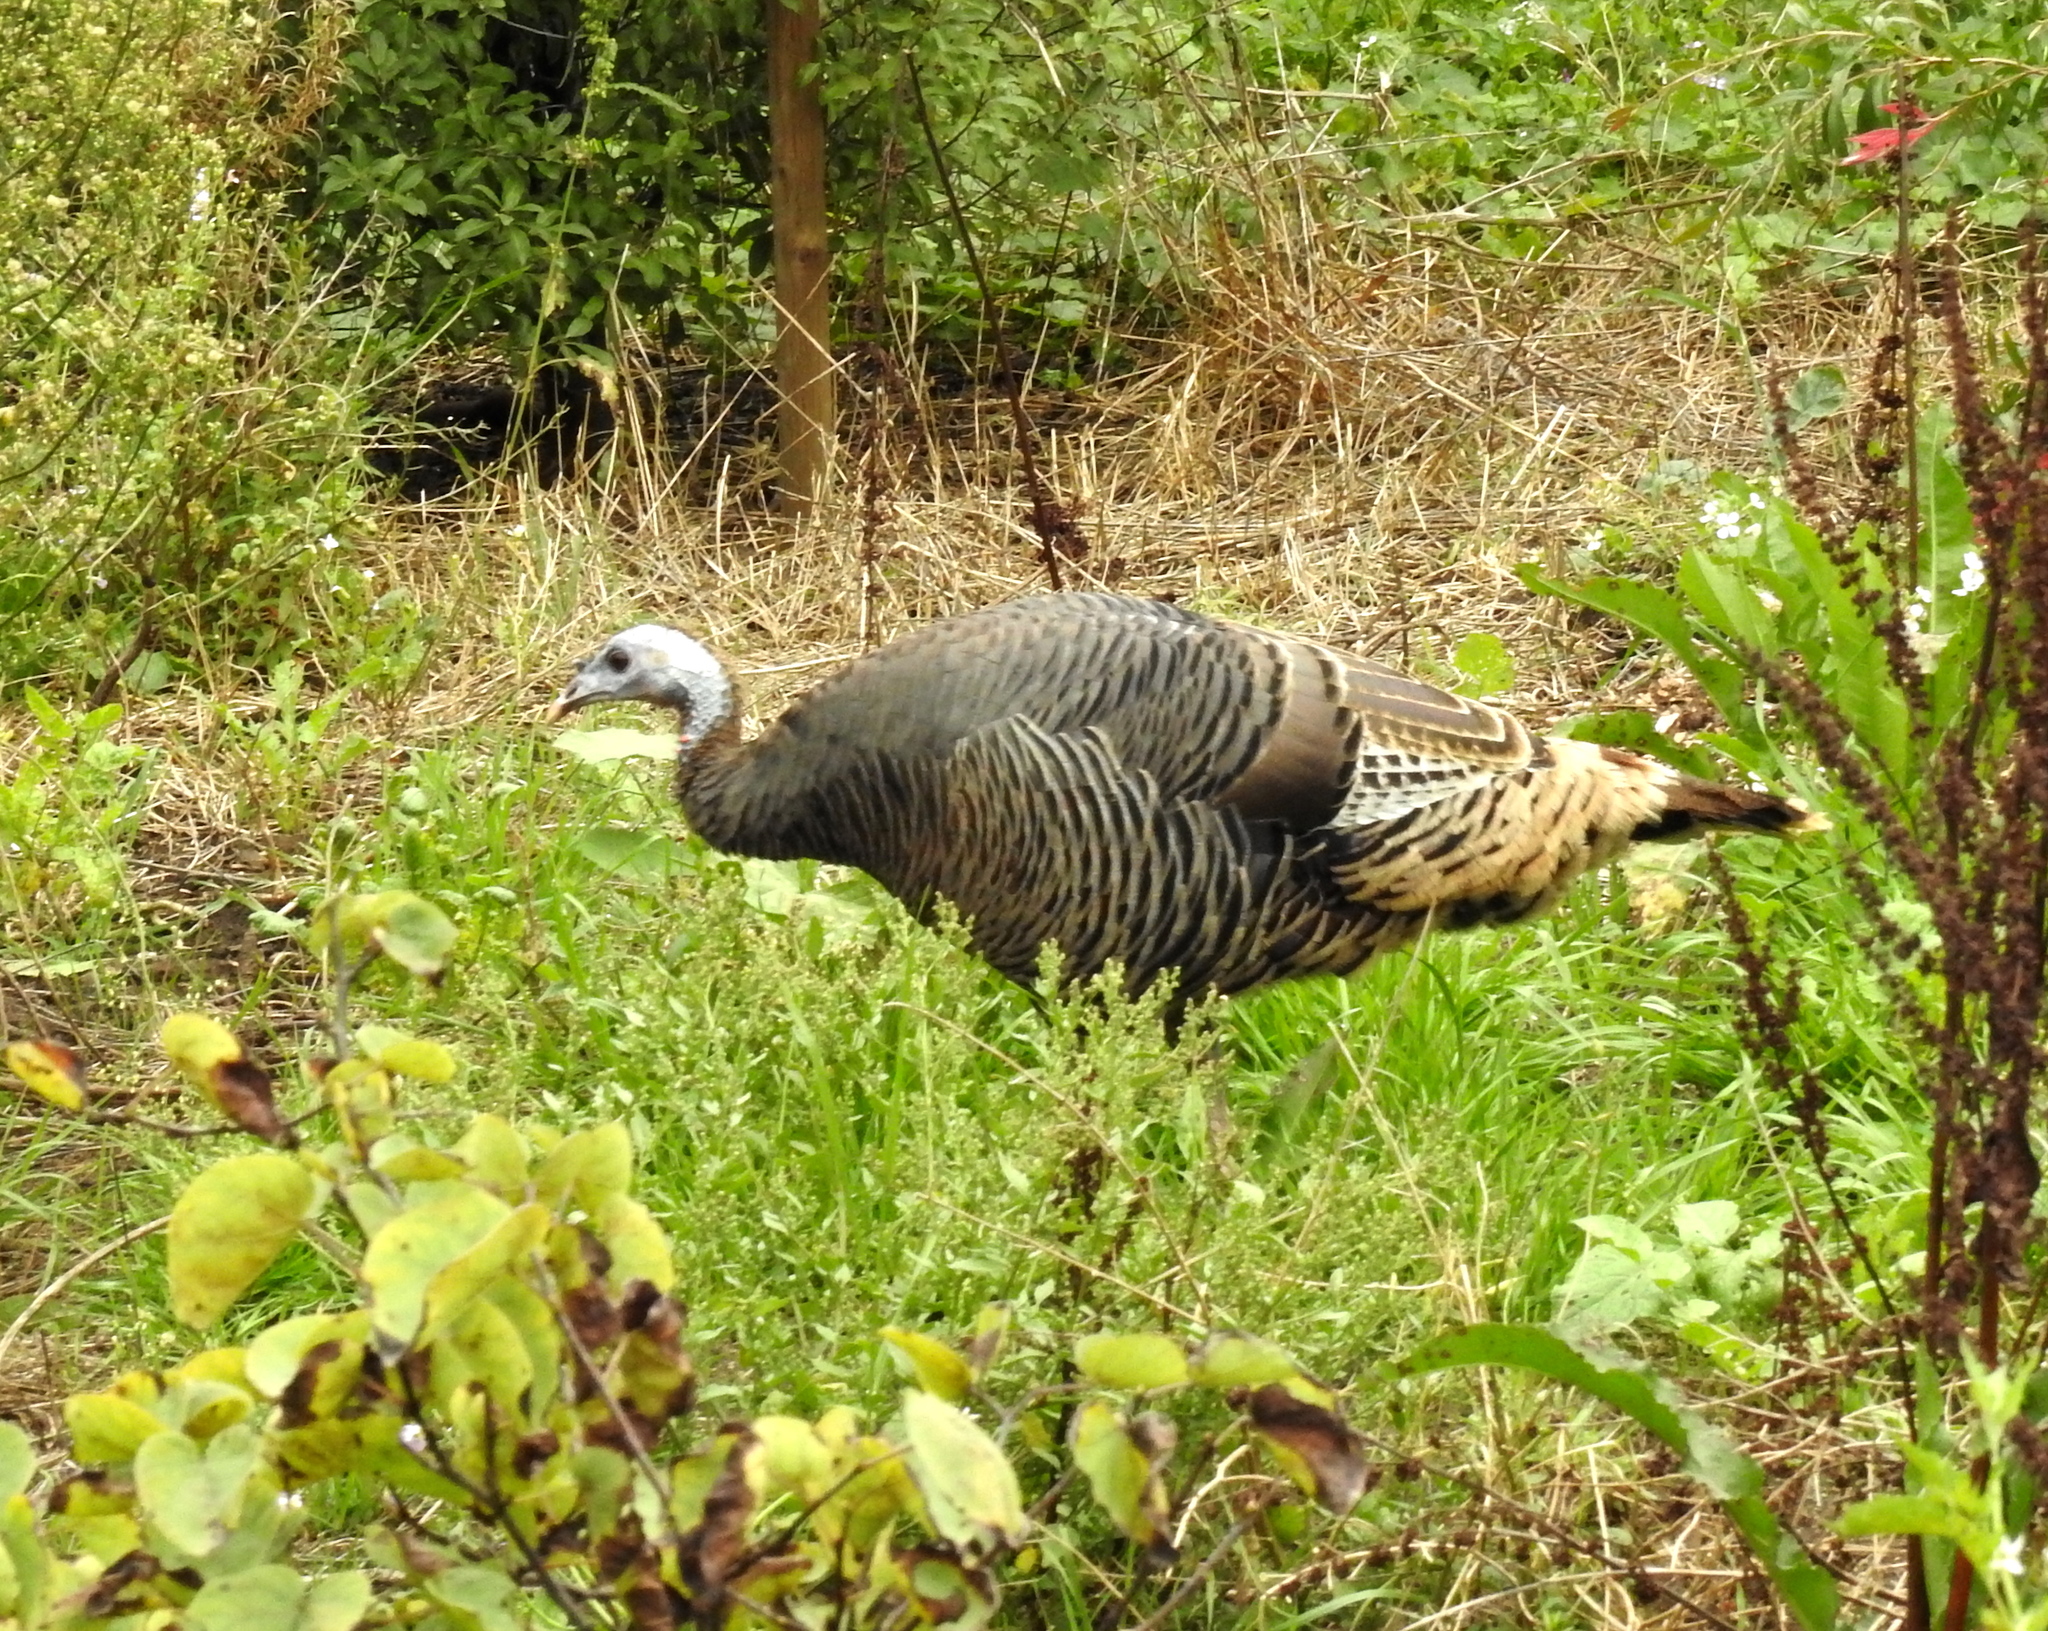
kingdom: Animalia
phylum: Chordata
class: Aves
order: Galliformes
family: Phasianidae
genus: Meleagris
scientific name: Meleagris gallopavo
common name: Wild turkey
